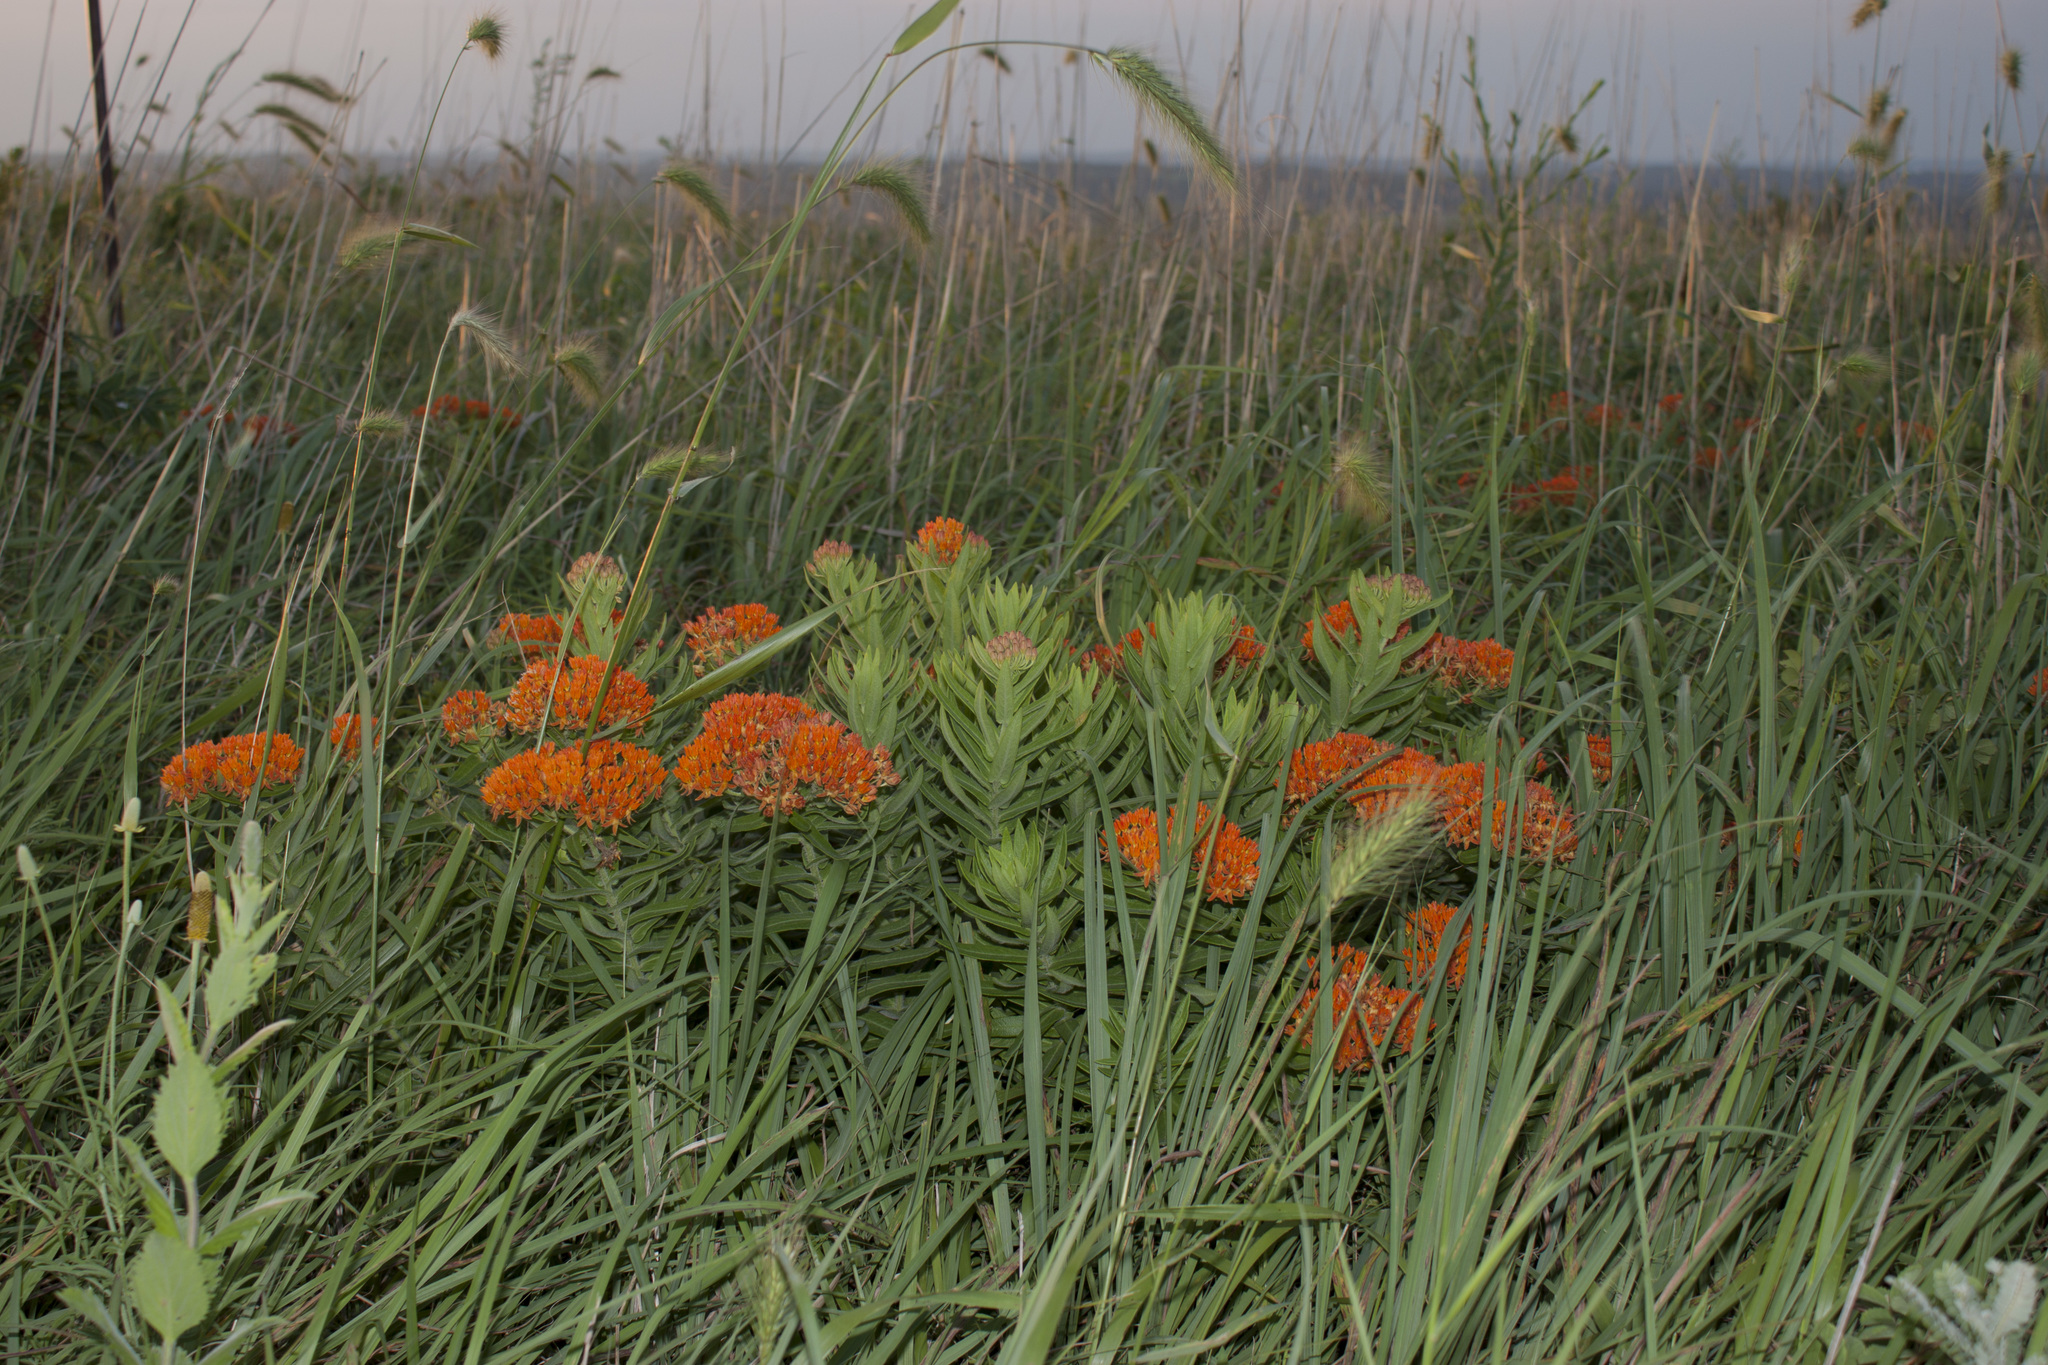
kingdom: Plantae
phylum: Tracheophyta
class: Magnoliopsida
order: Gentianales
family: Apocynaceae
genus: Asclepias
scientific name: Asclepias tuberosa
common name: Butterfly milkweed
